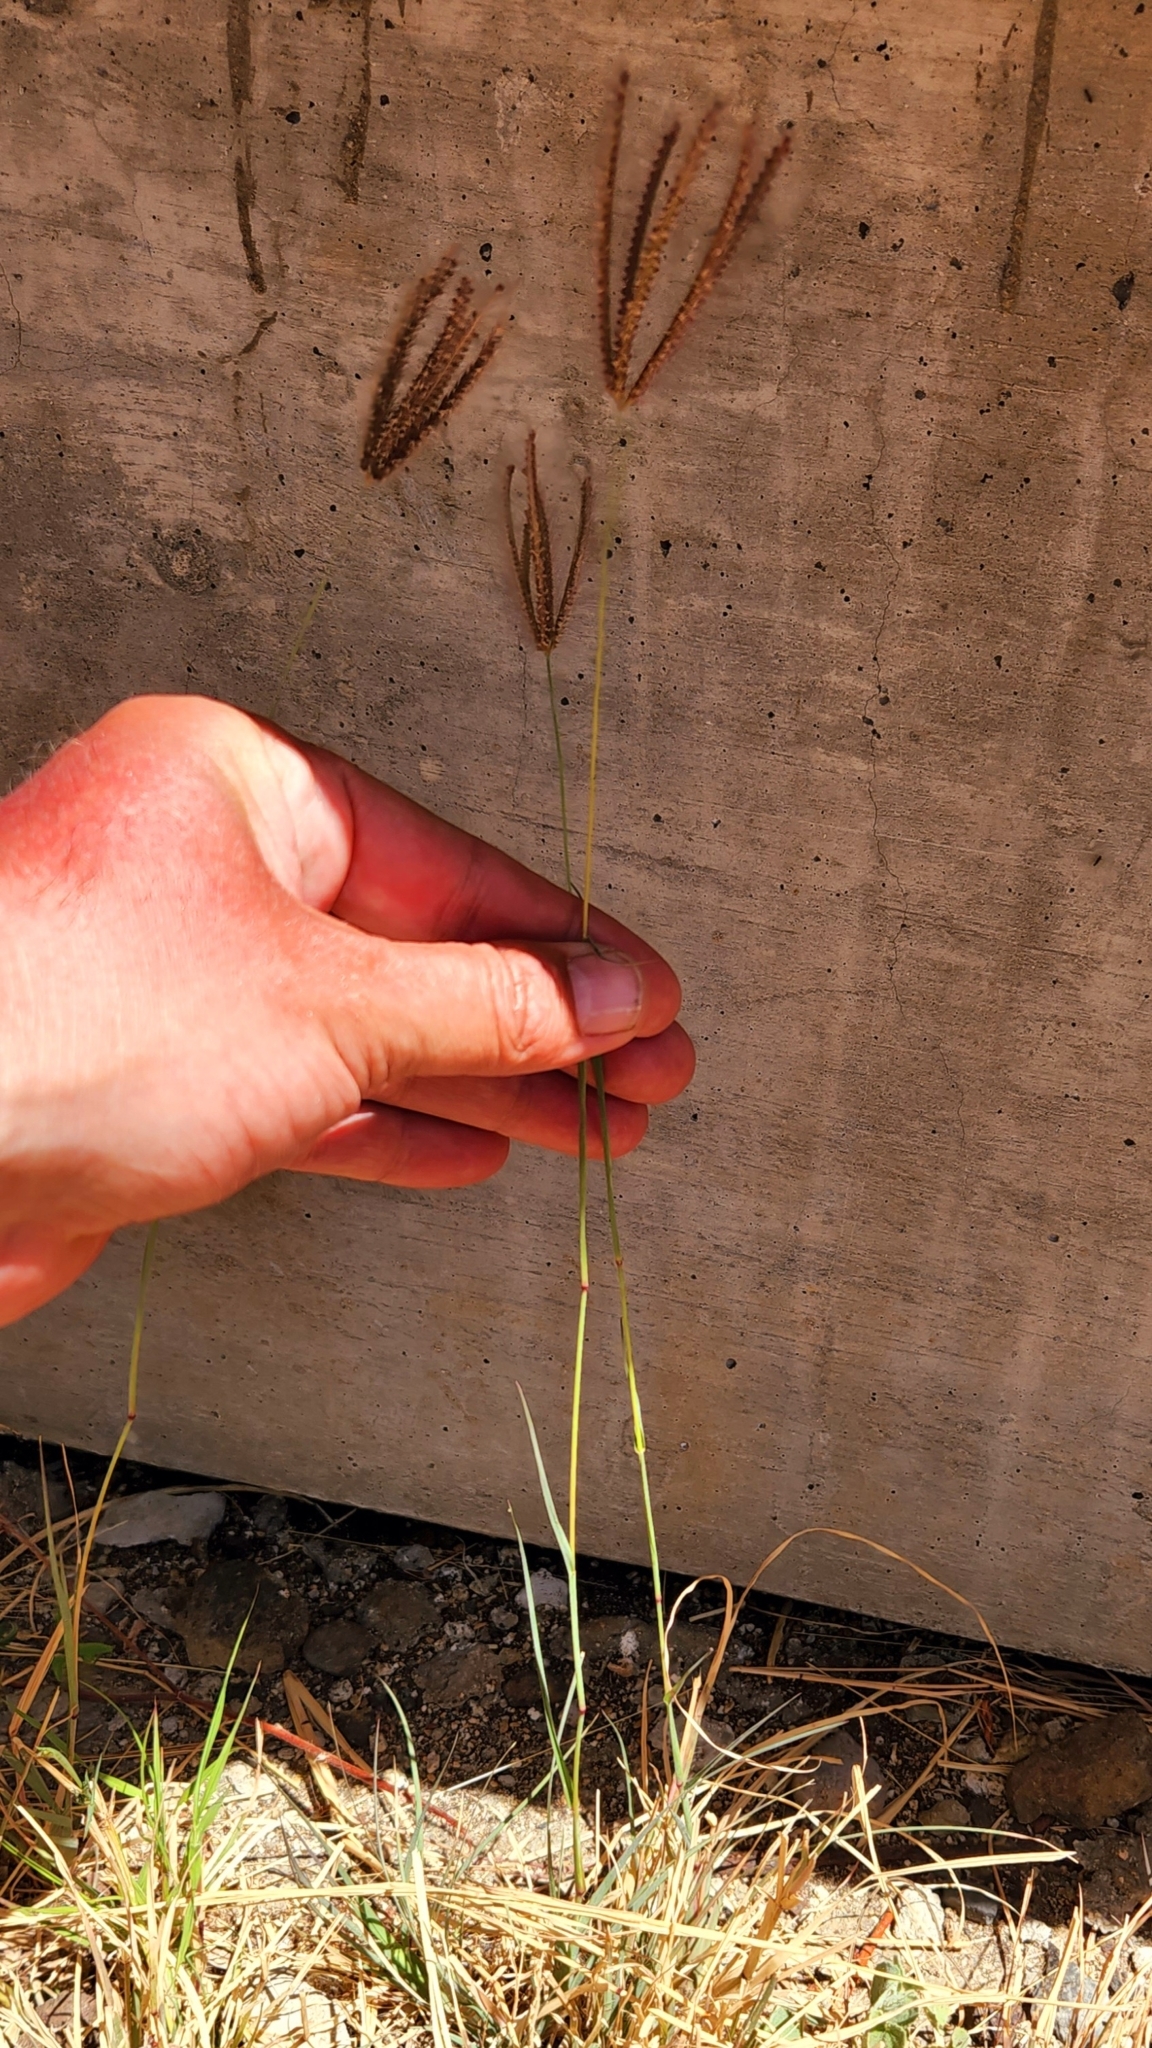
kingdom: Plantae
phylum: Tracheophyta
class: Liliopsida
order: Poales
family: Poaceae
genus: Chloris
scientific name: Chloris barbata
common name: Swollen fingergrass
